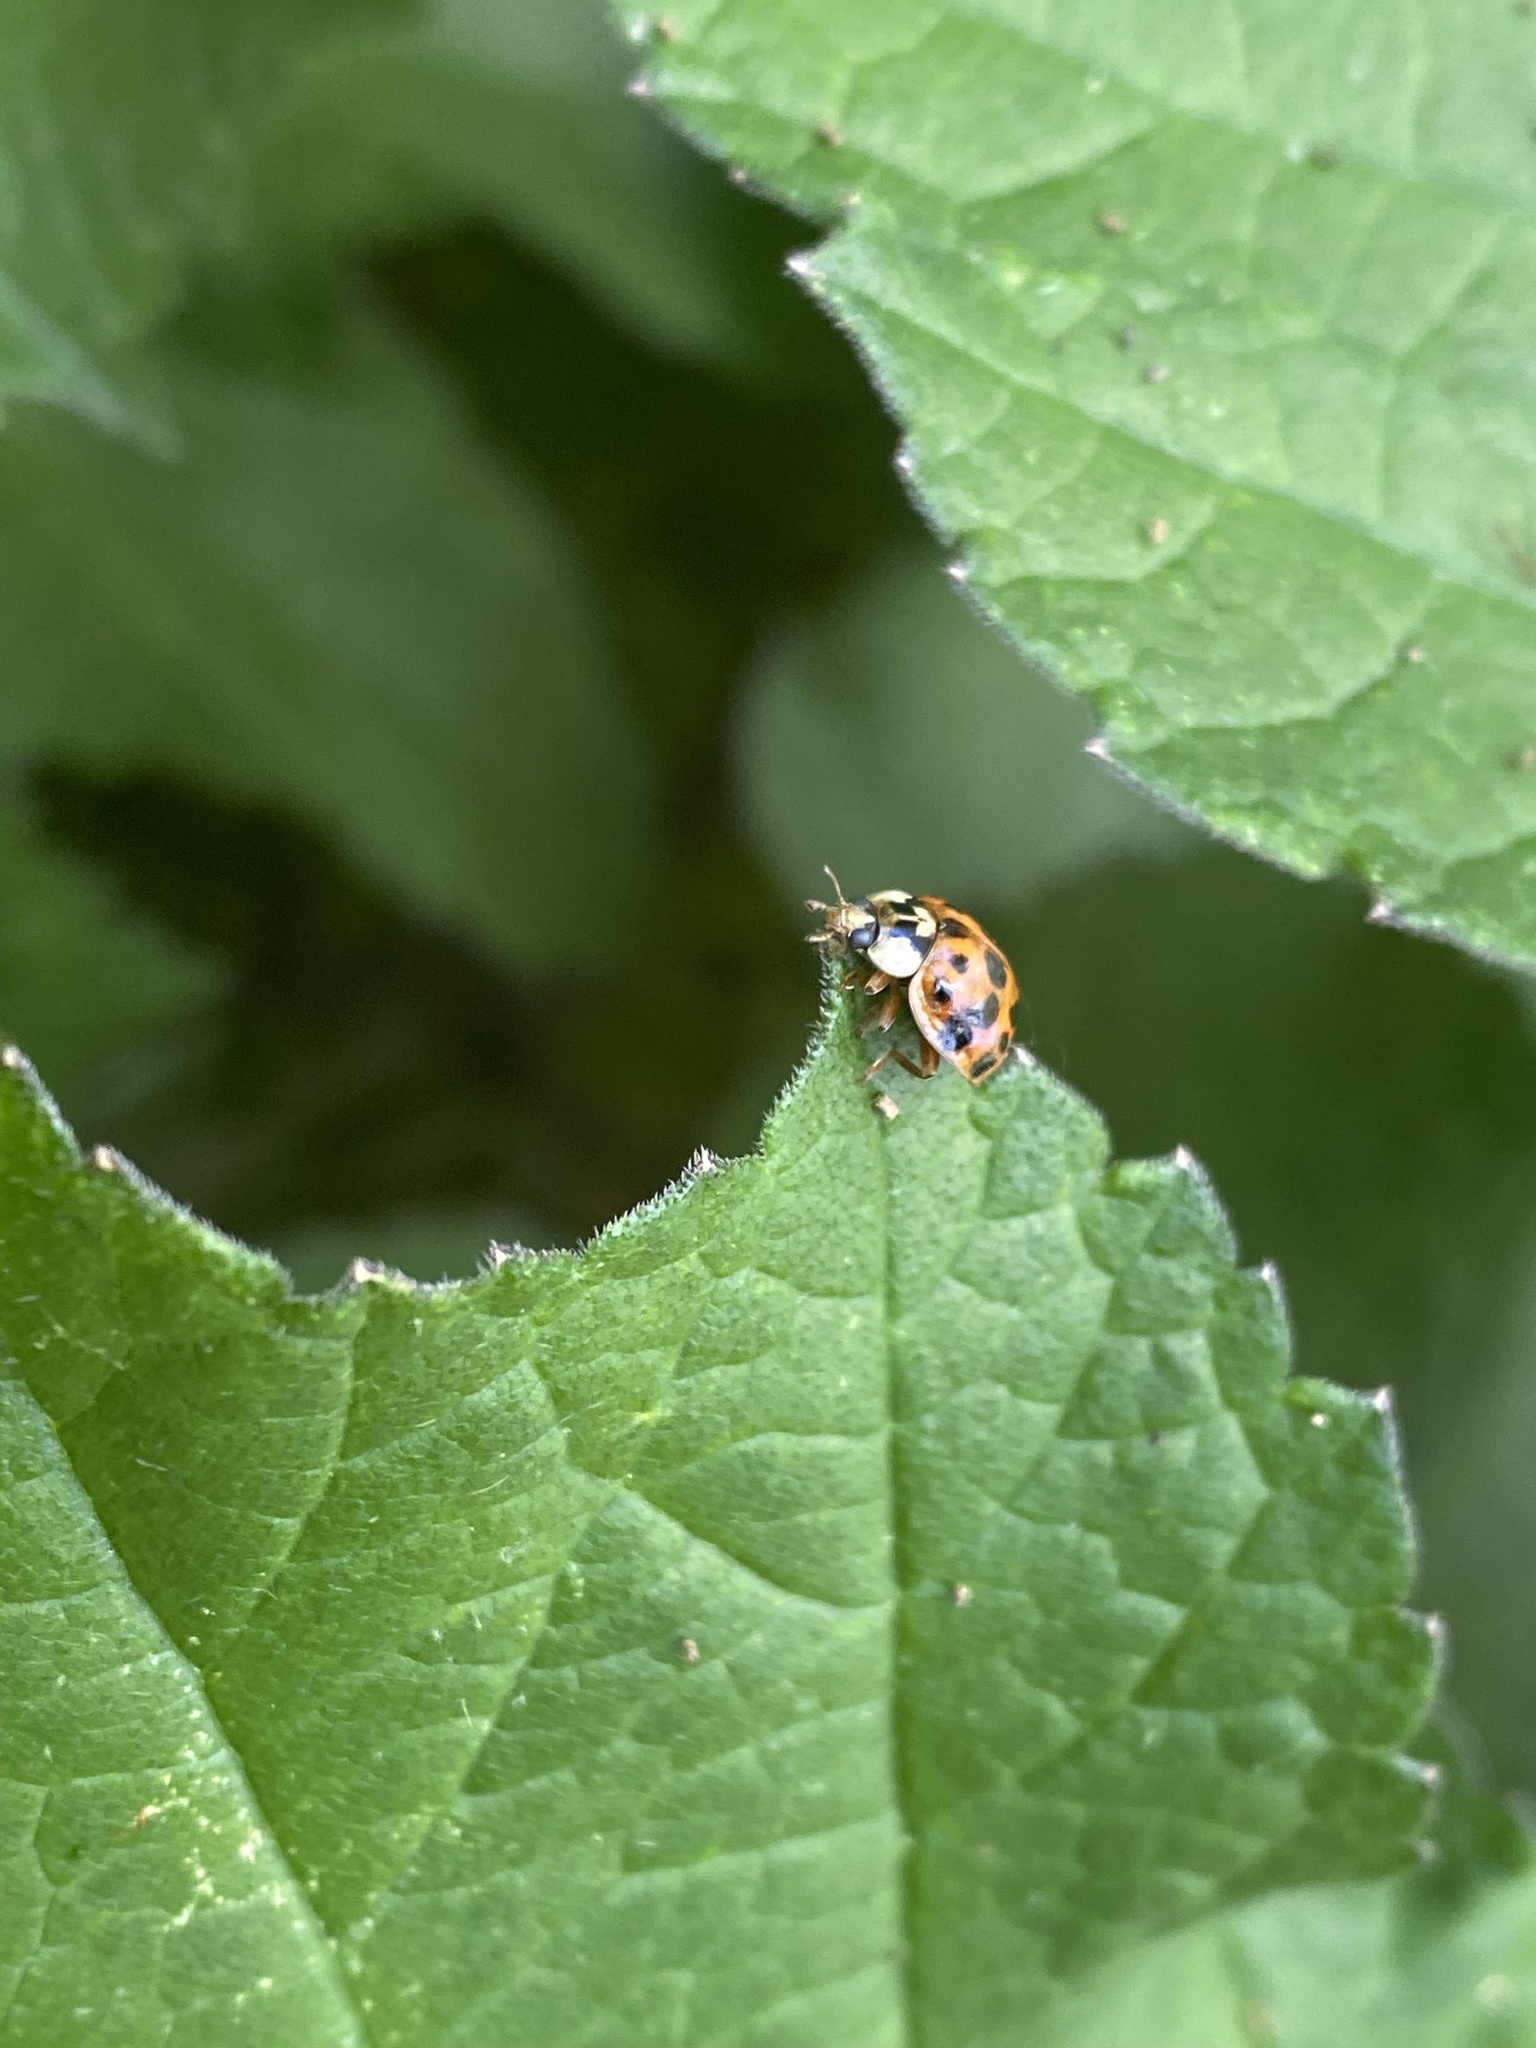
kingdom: Animalia
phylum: Arthropoda
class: Insecta
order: Coleoptera
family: Coccinellidae
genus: Harmonia
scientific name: Harmonia axyridis
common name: Harlequin ladybird
